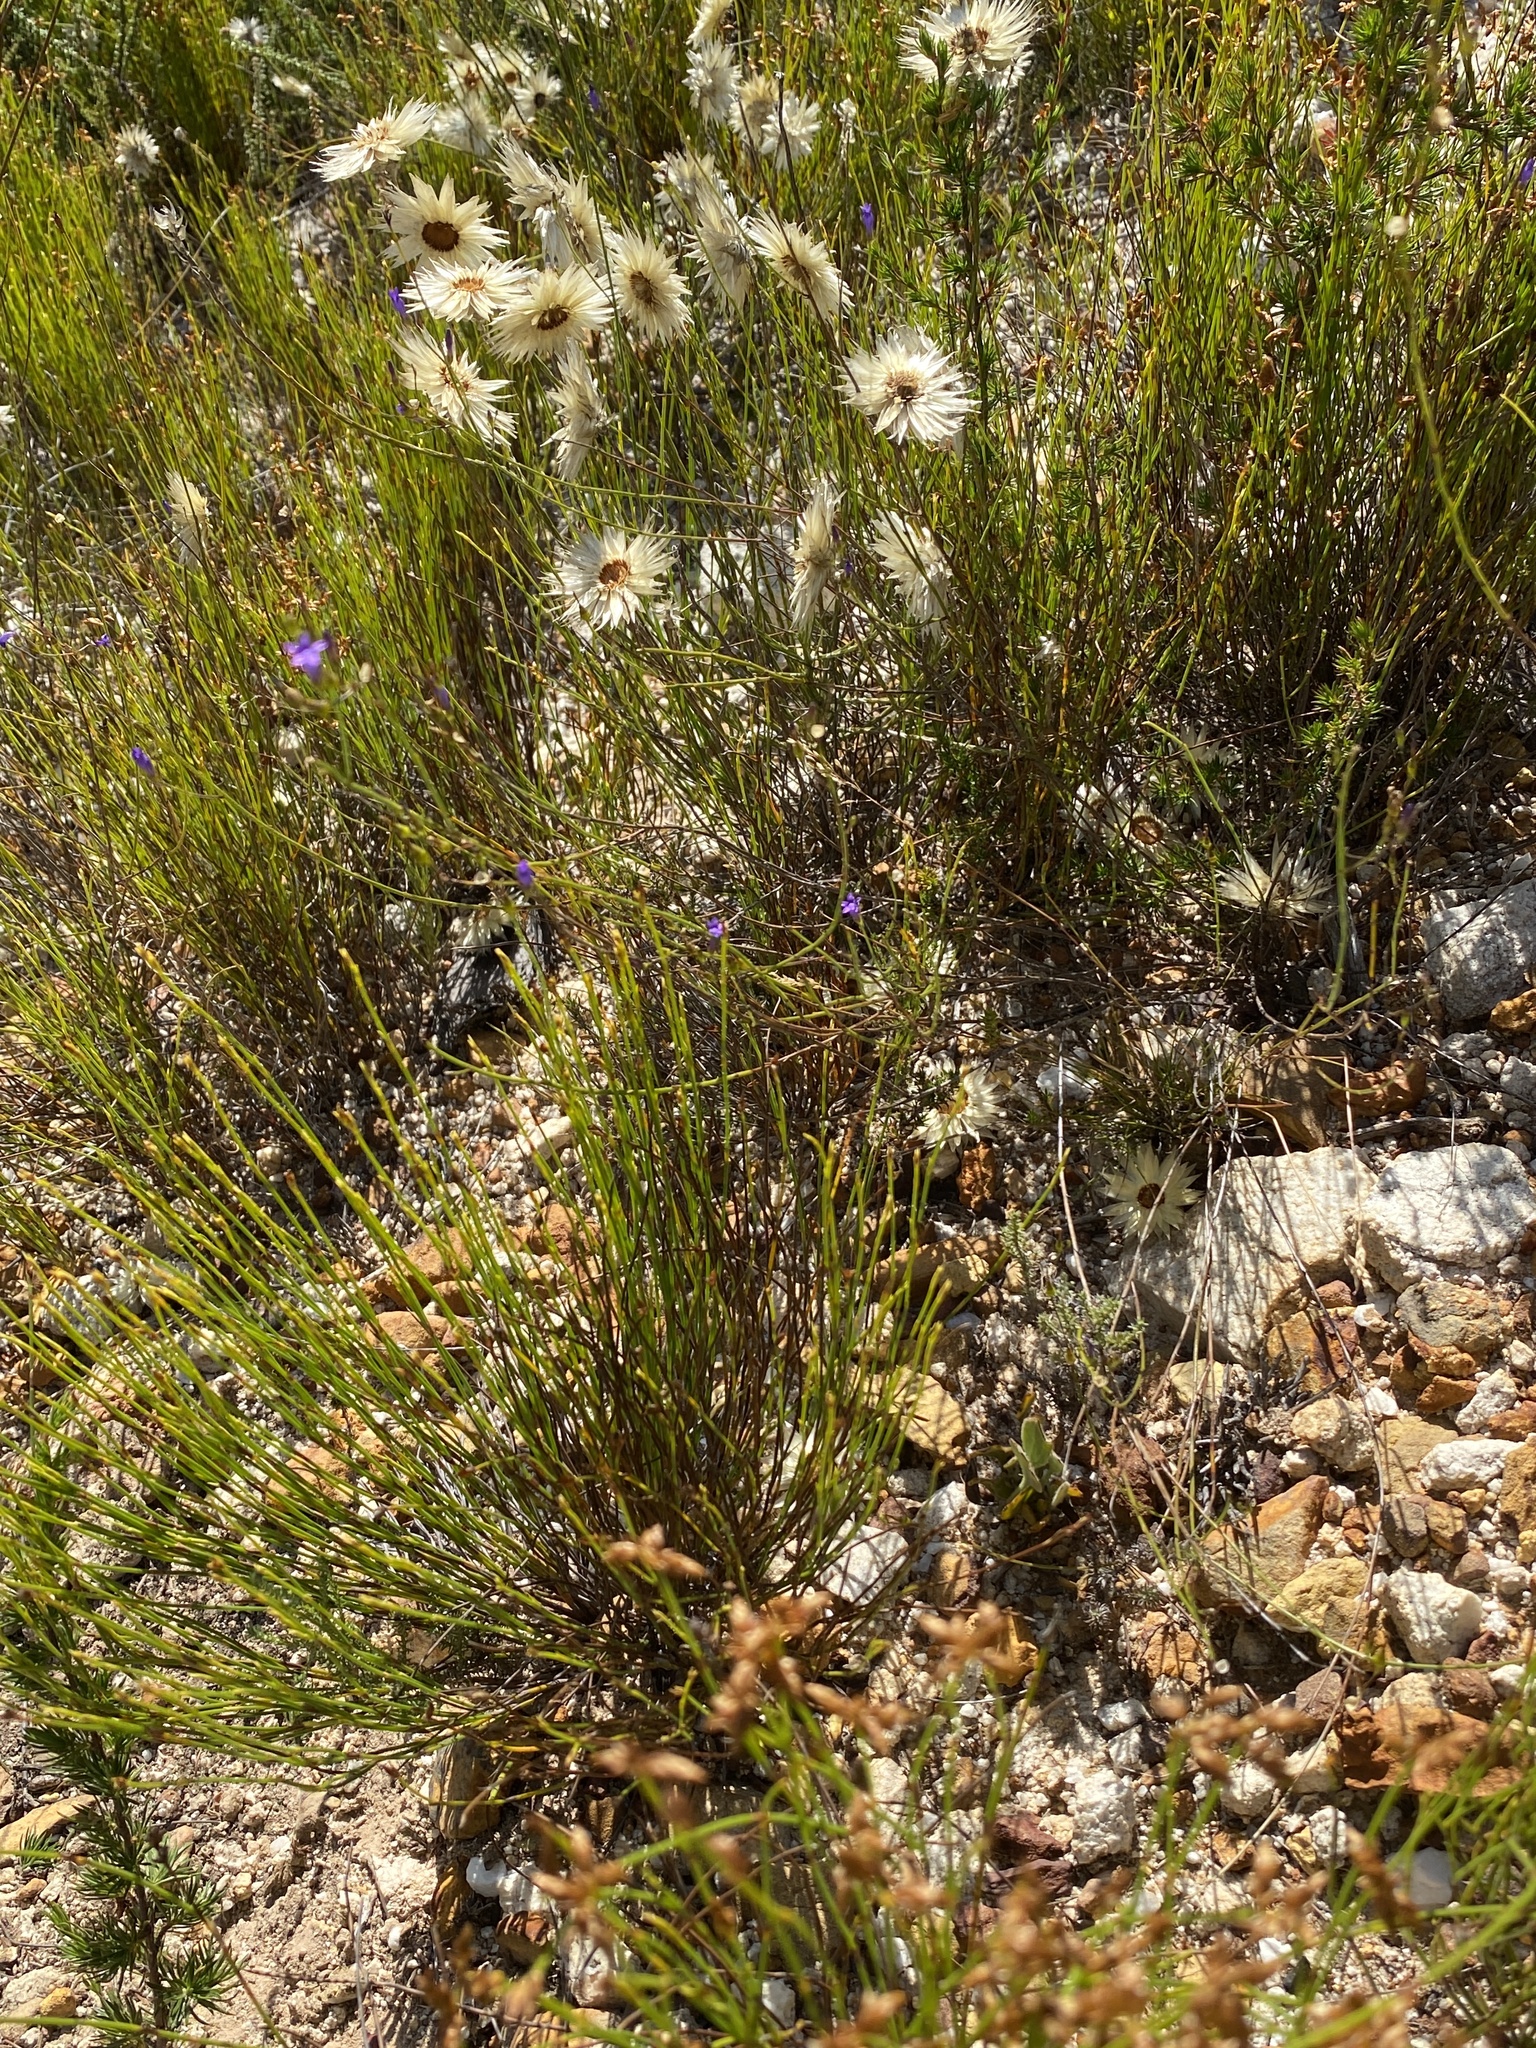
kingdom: Plantae
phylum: Tracheophyta
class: Magnoliopsida
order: Asterales
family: Campanulaceae
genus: Siphocodon
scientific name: Siphocodon spartioides
